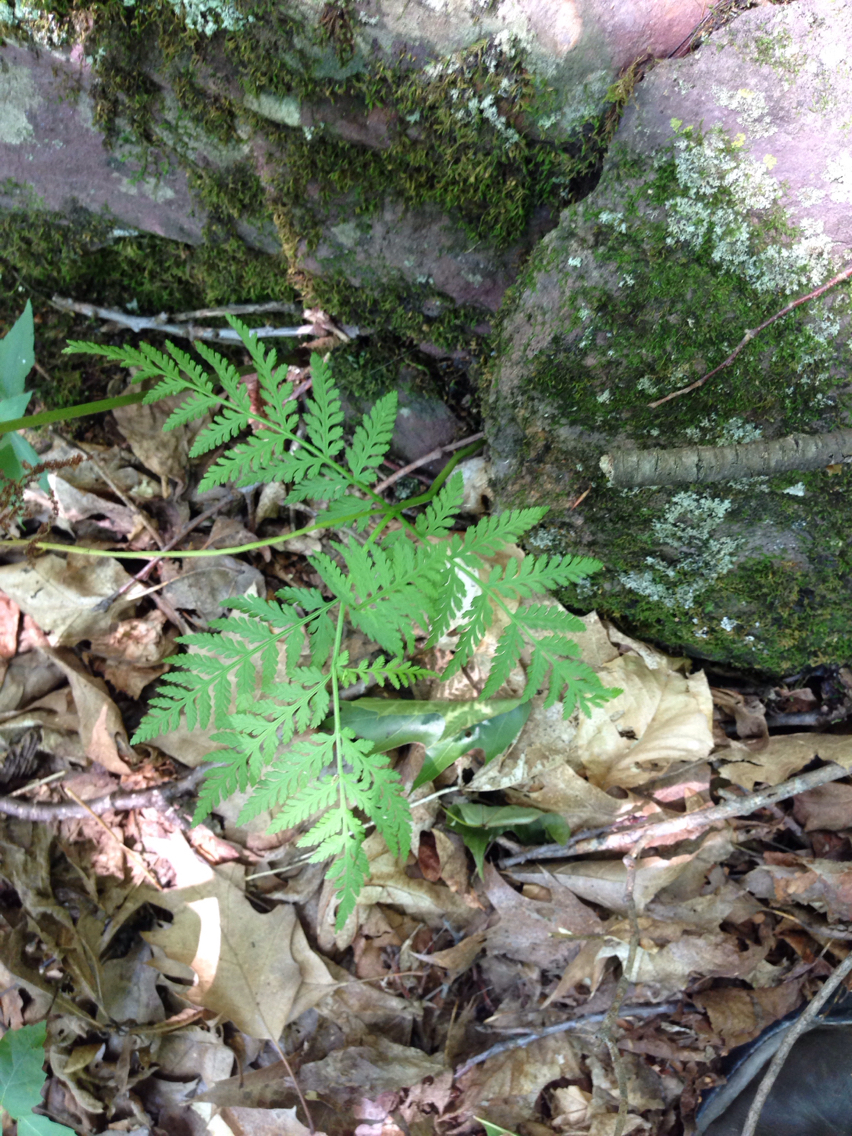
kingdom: Plantae
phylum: Tracheophyta
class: Polypodiopsida
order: Ophioglossales
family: Ophioglossaceae
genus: Botrypus
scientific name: Botrypus virginianus
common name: Common grapefern
